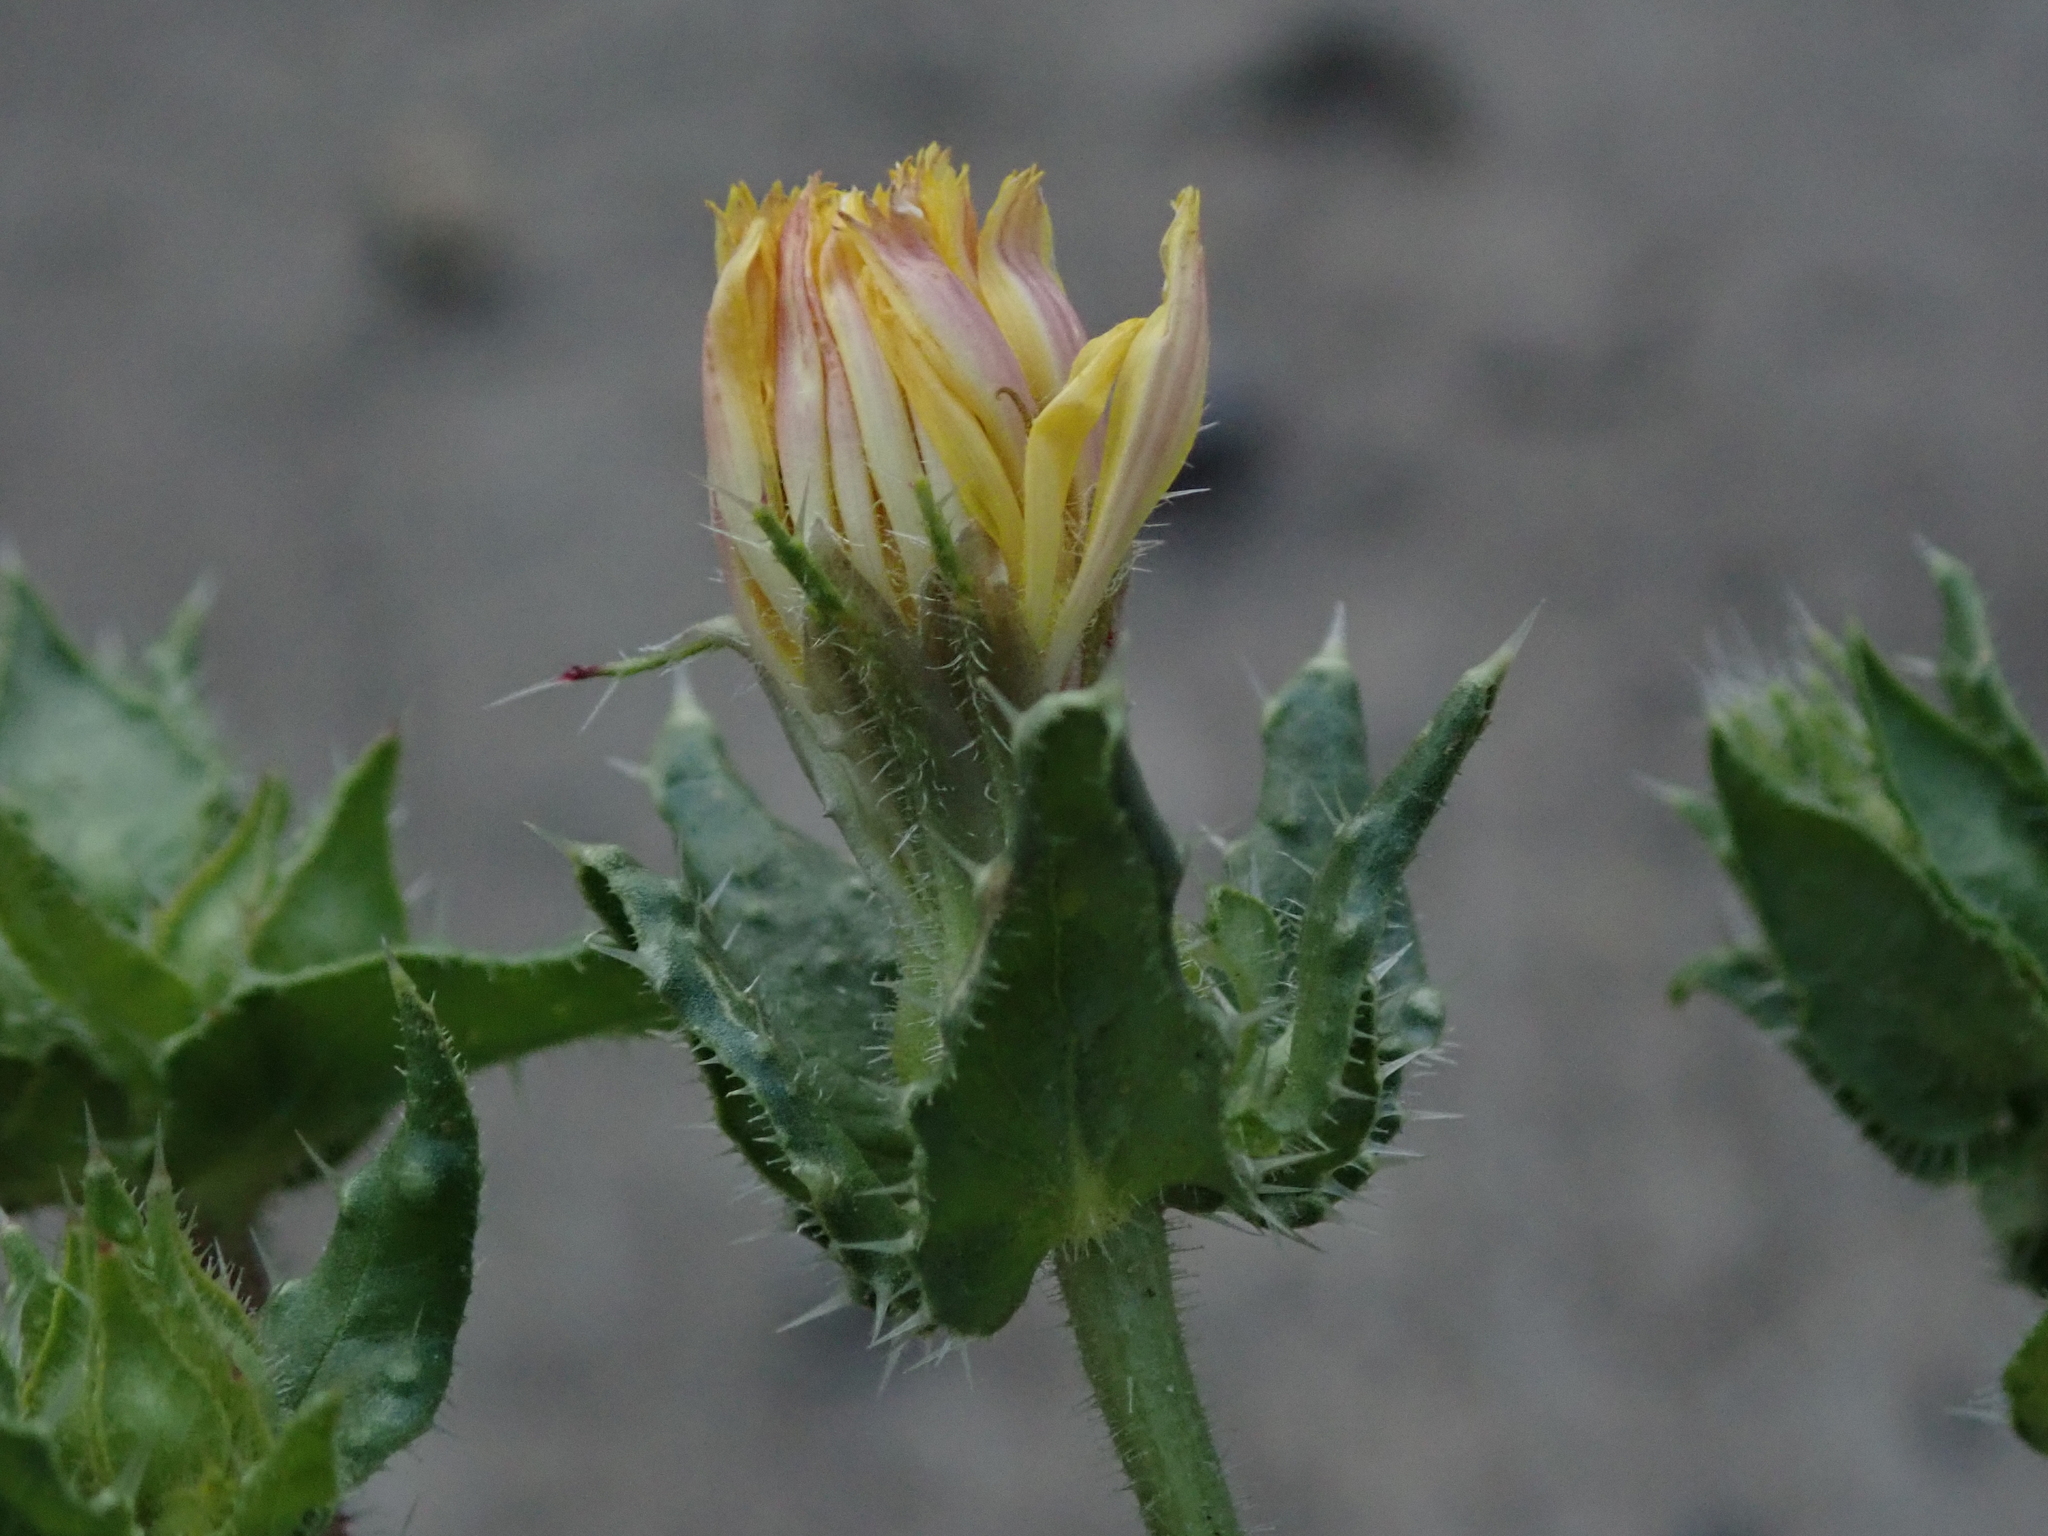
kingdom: Plantae
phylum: Tracheophyta
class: Magnoliopsida
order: Asterales
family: Asteraceae
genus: Helminthotheca
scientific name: Helminthotheca echioides
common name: Ox-tongue
